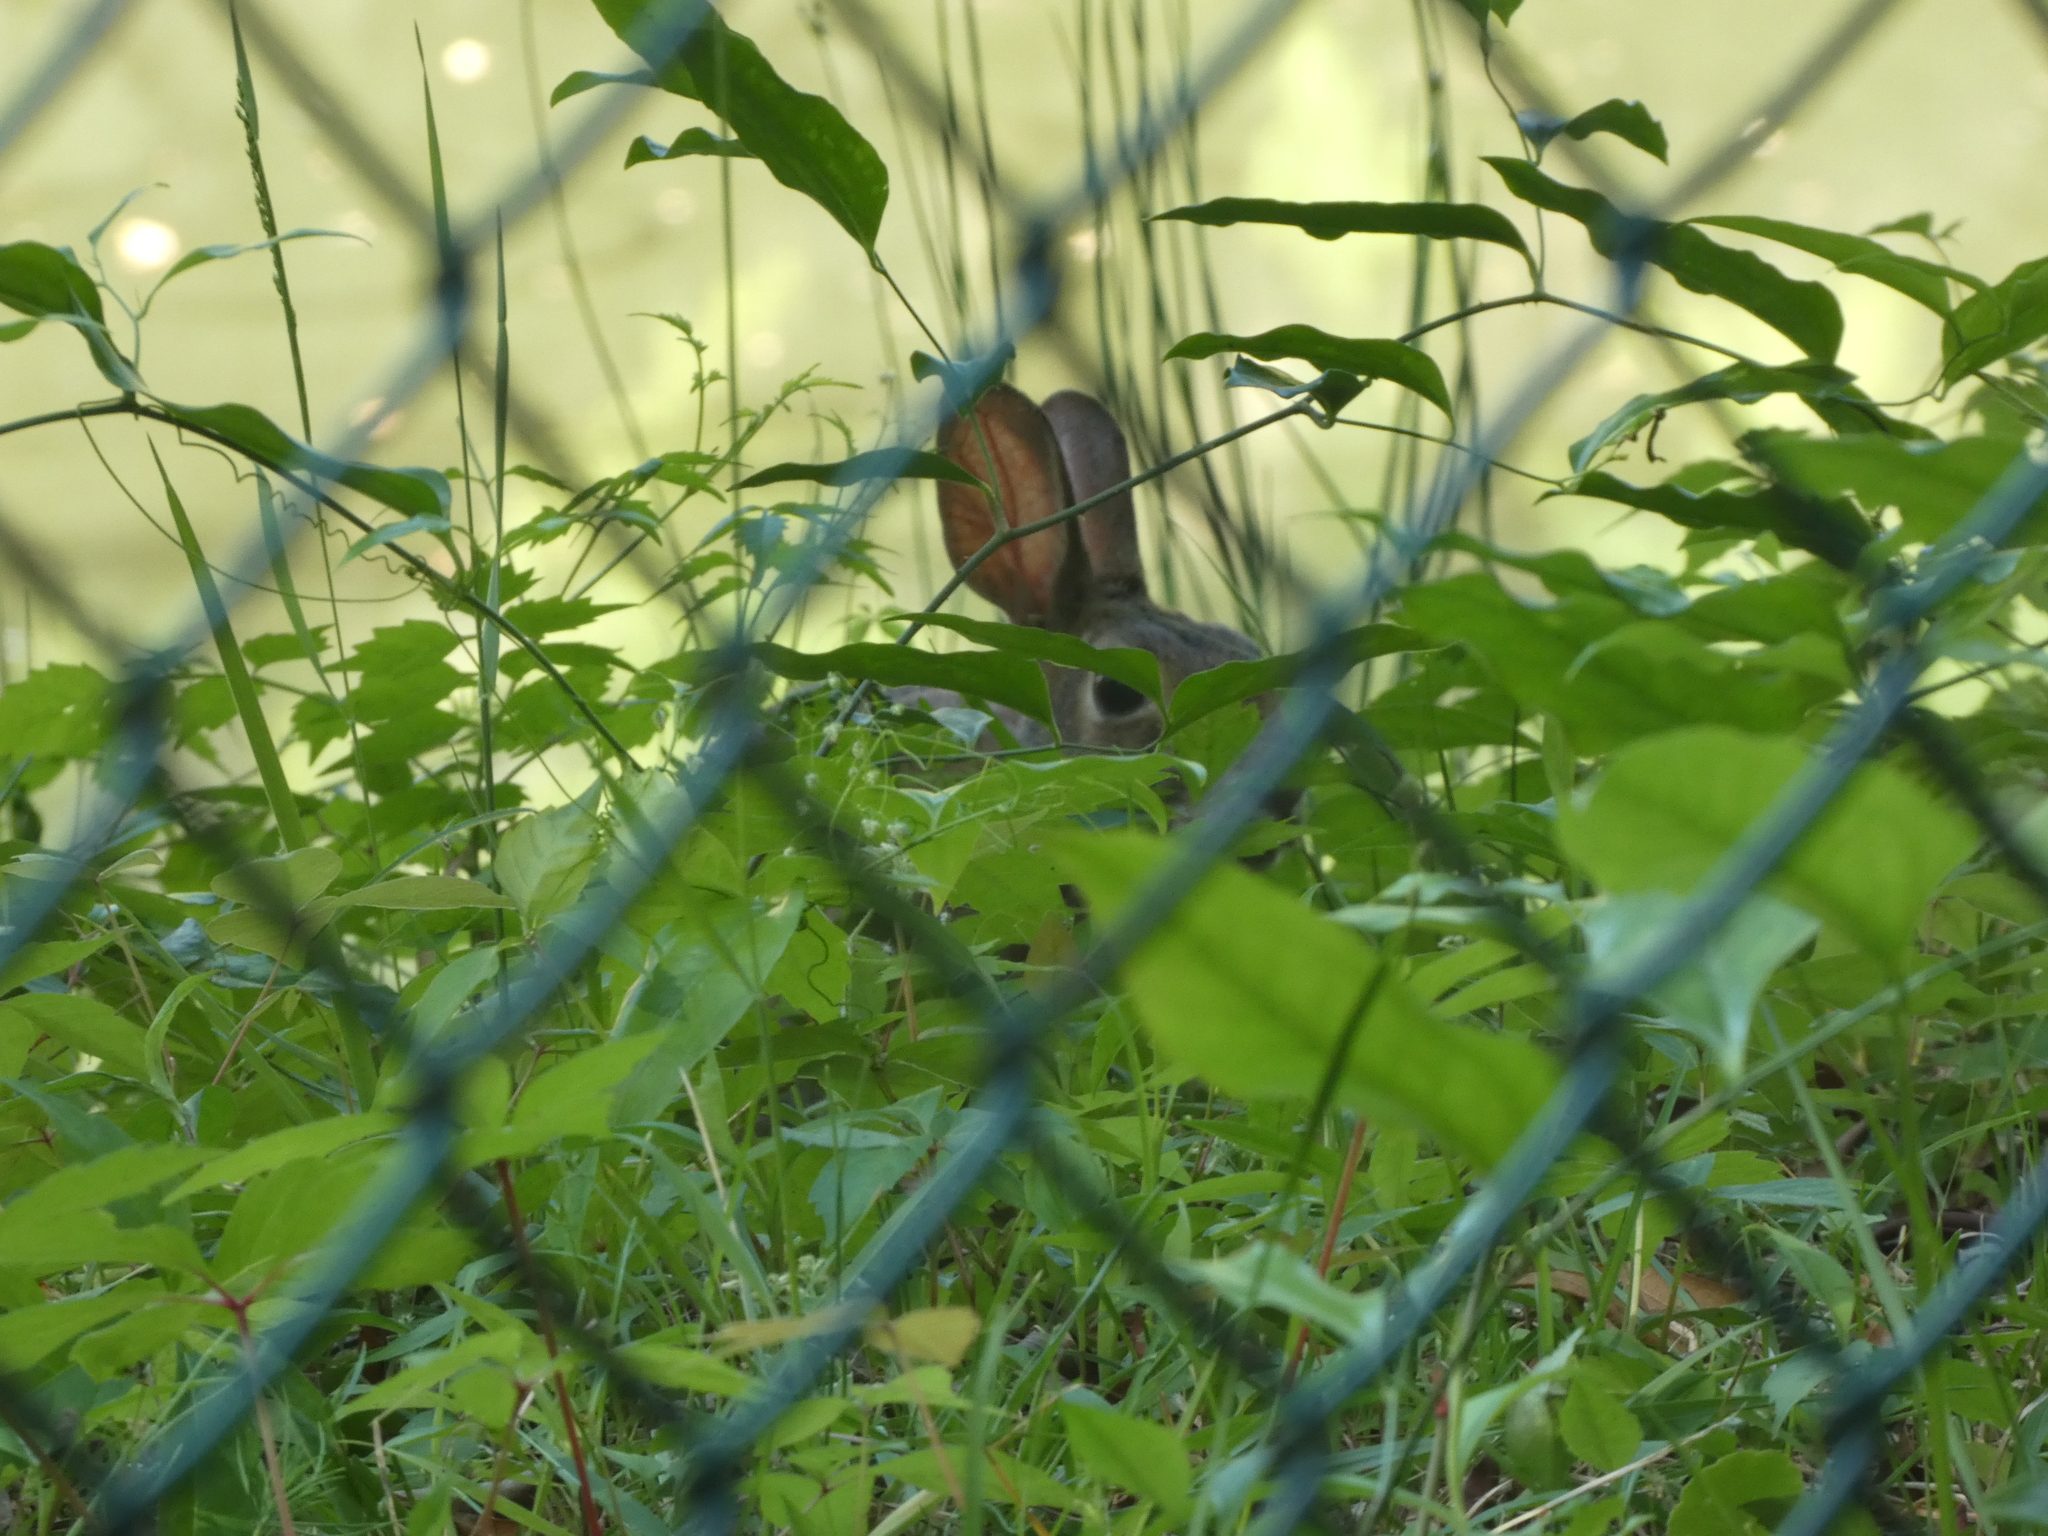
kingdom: Animalia
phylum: Chordata
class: Mammalia
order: Lagomorpha
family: Leporidae
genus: Sylvilagus
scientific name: Sylvilagus floridanus
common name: Eastern cottontail
